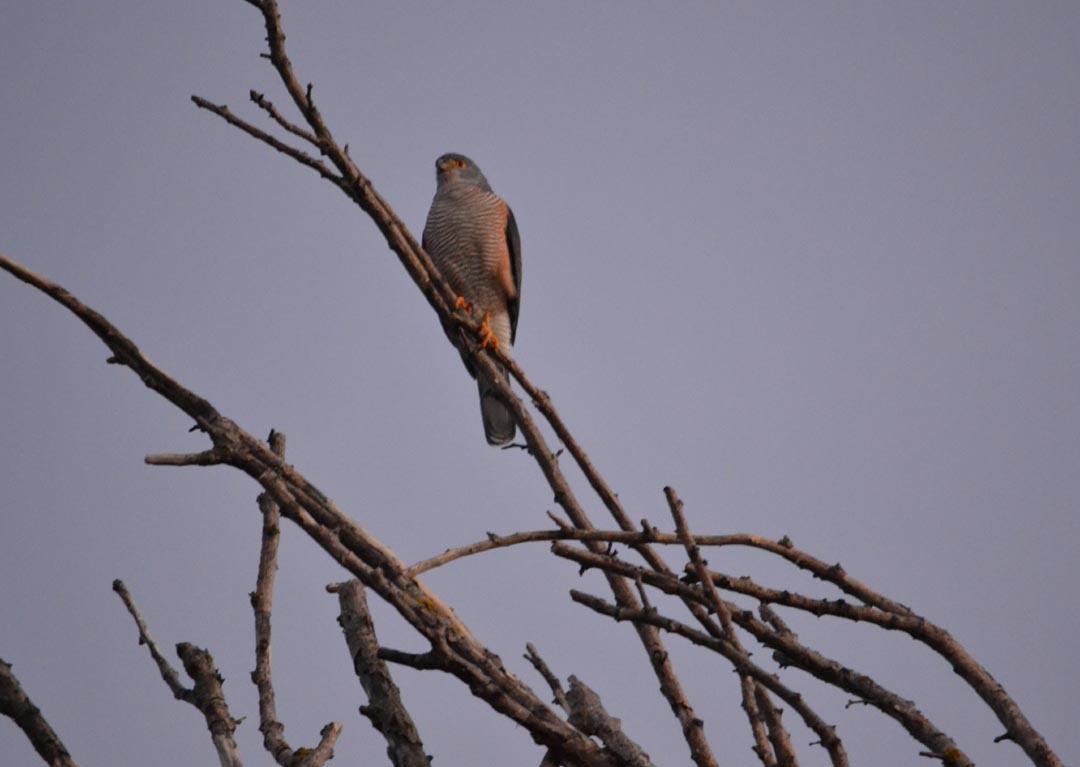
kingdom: Animalia
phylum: Chordata
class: Aves
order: Accipitriformes
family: Accipitridae
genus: Accipiter
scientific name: Accipiter tachiro
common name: African goshawk
